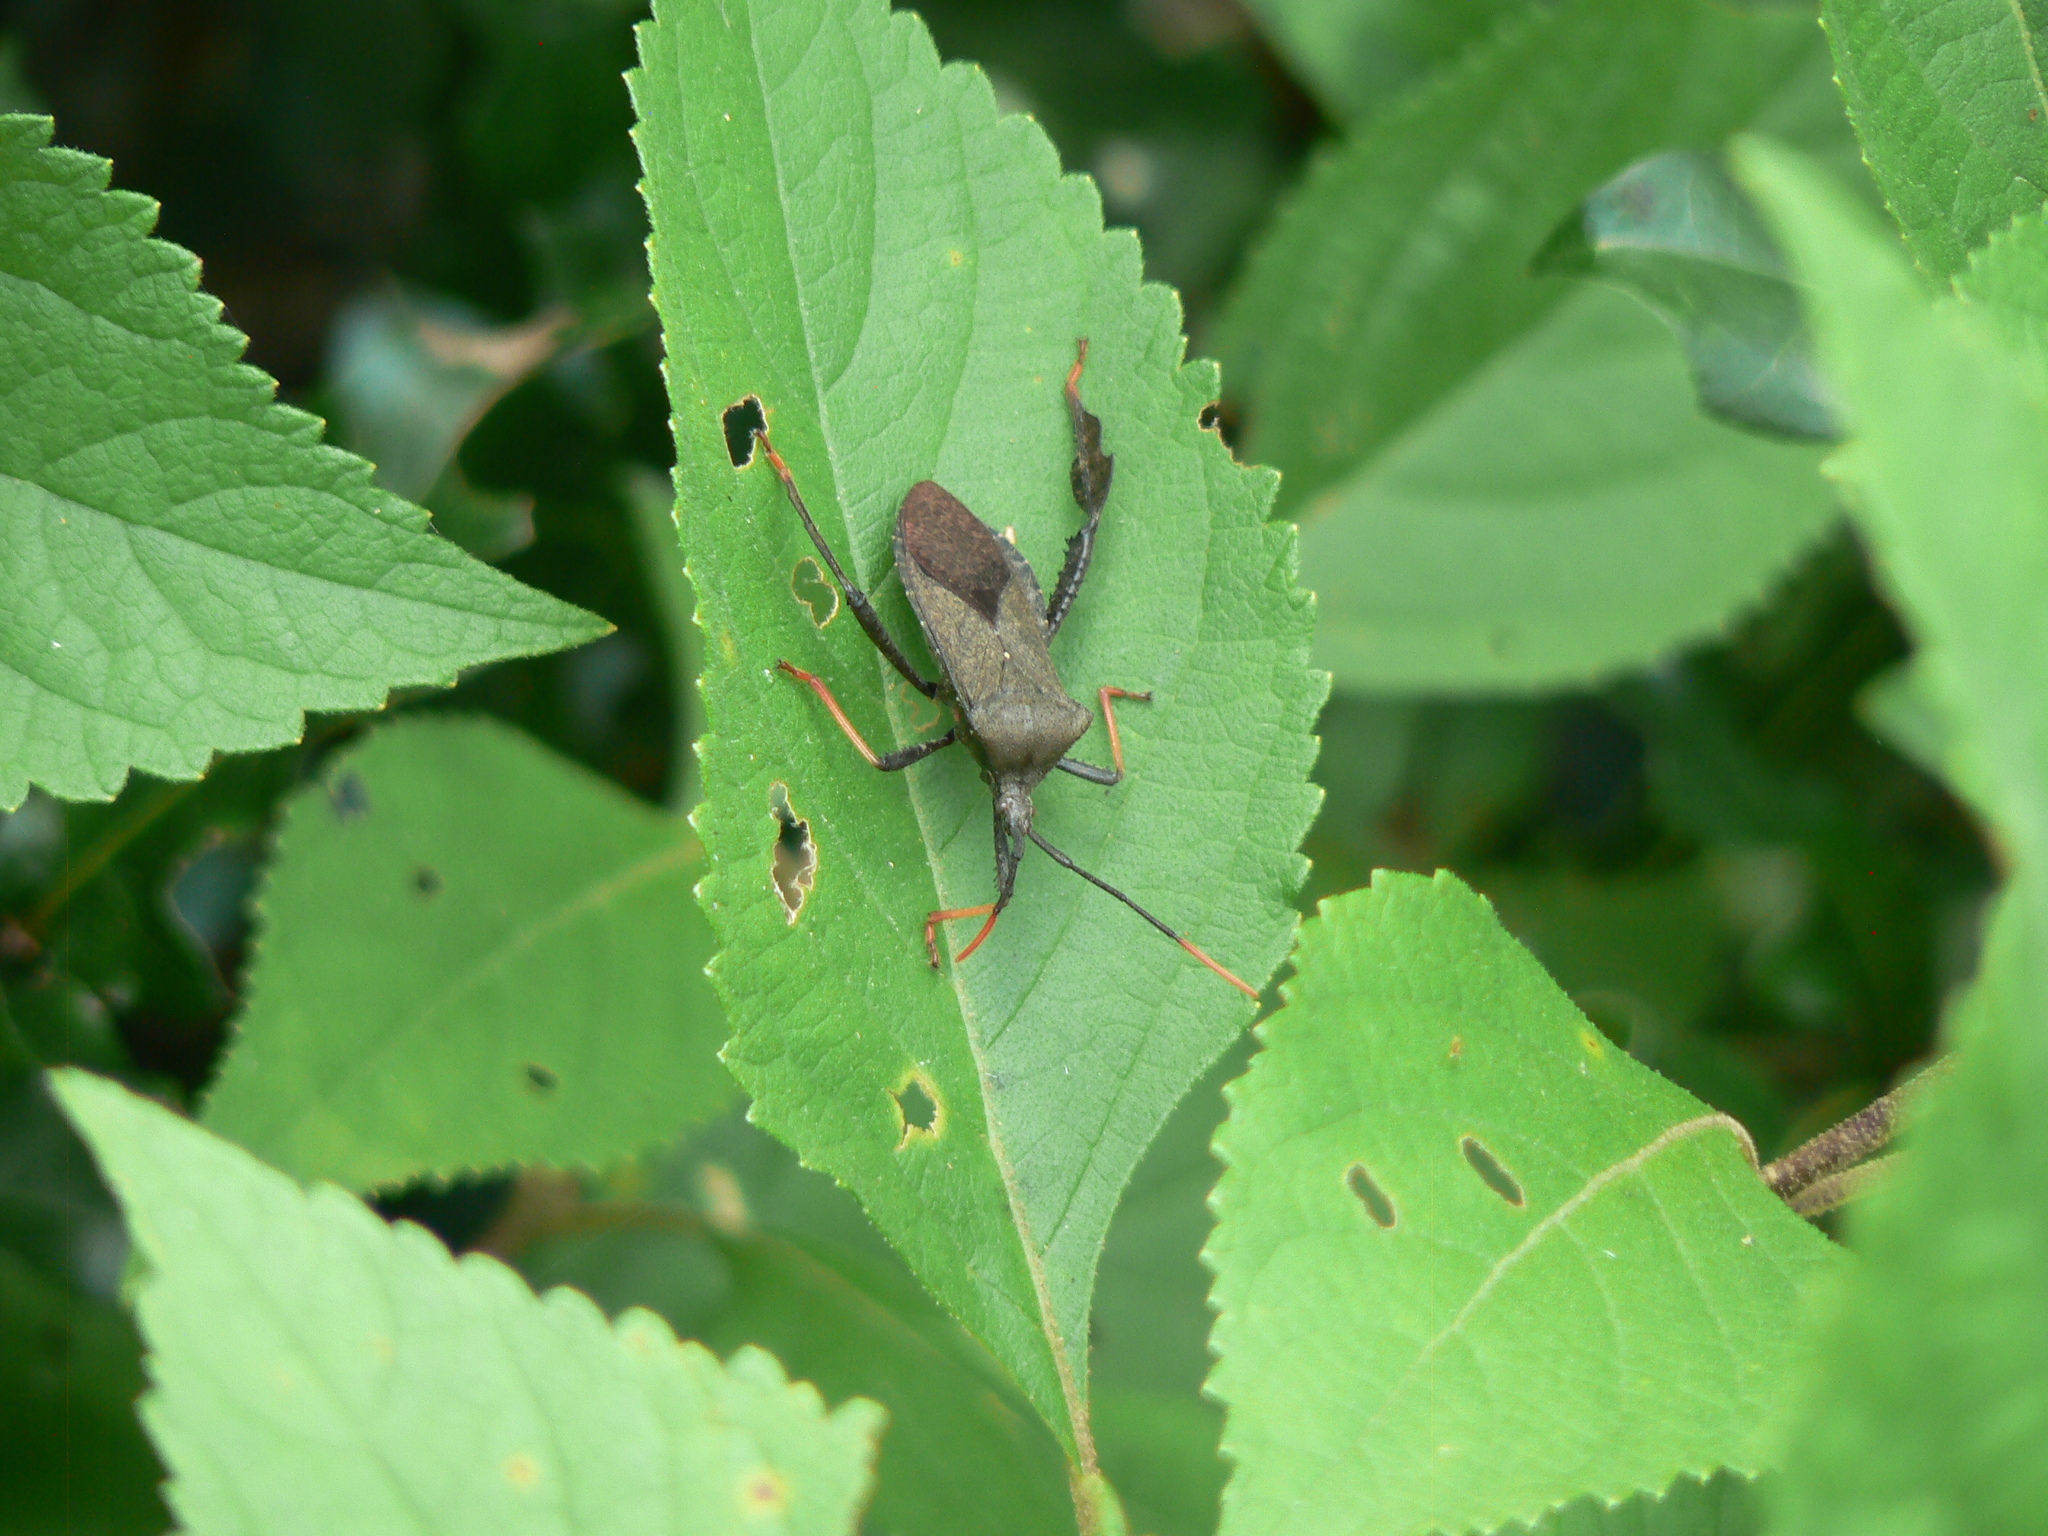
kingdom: Animalia
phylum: Arthropoda
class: Insecta
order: Hemiptera
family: Coreidae
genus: Acanthocephala
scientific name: Acanthocephala terminalis
